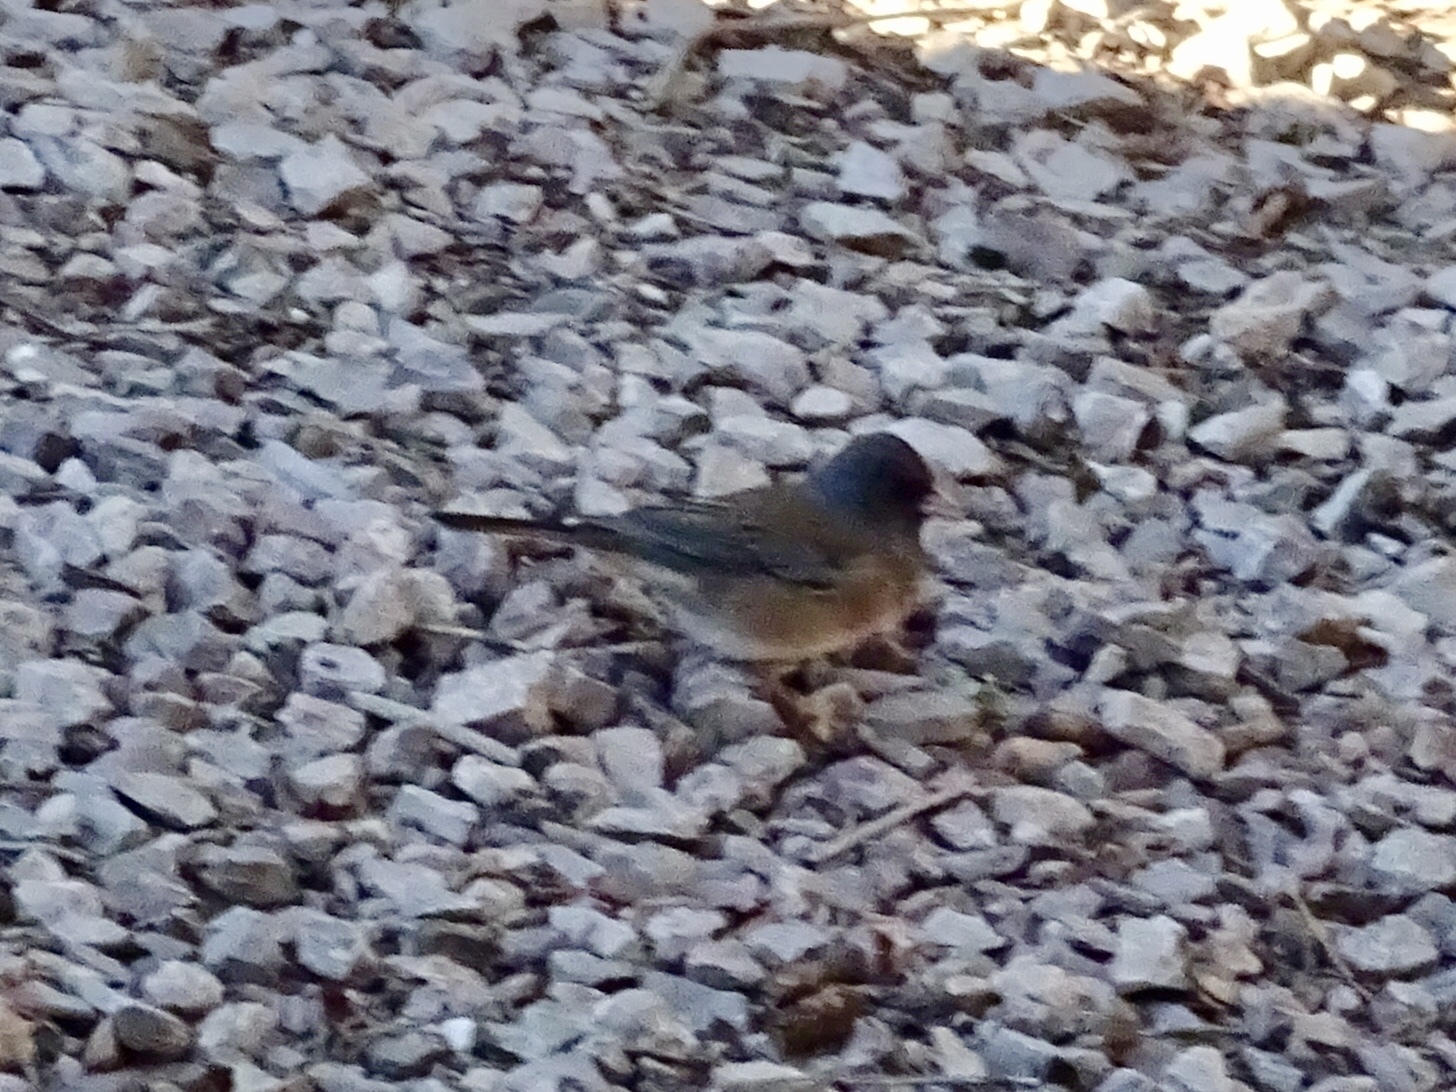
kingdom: Animalia
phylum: Chordata
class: Aves
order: Passeriformes
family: Passerellidae
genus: Junco
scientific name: Junco hyemalis
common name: Dark-eyed junco
